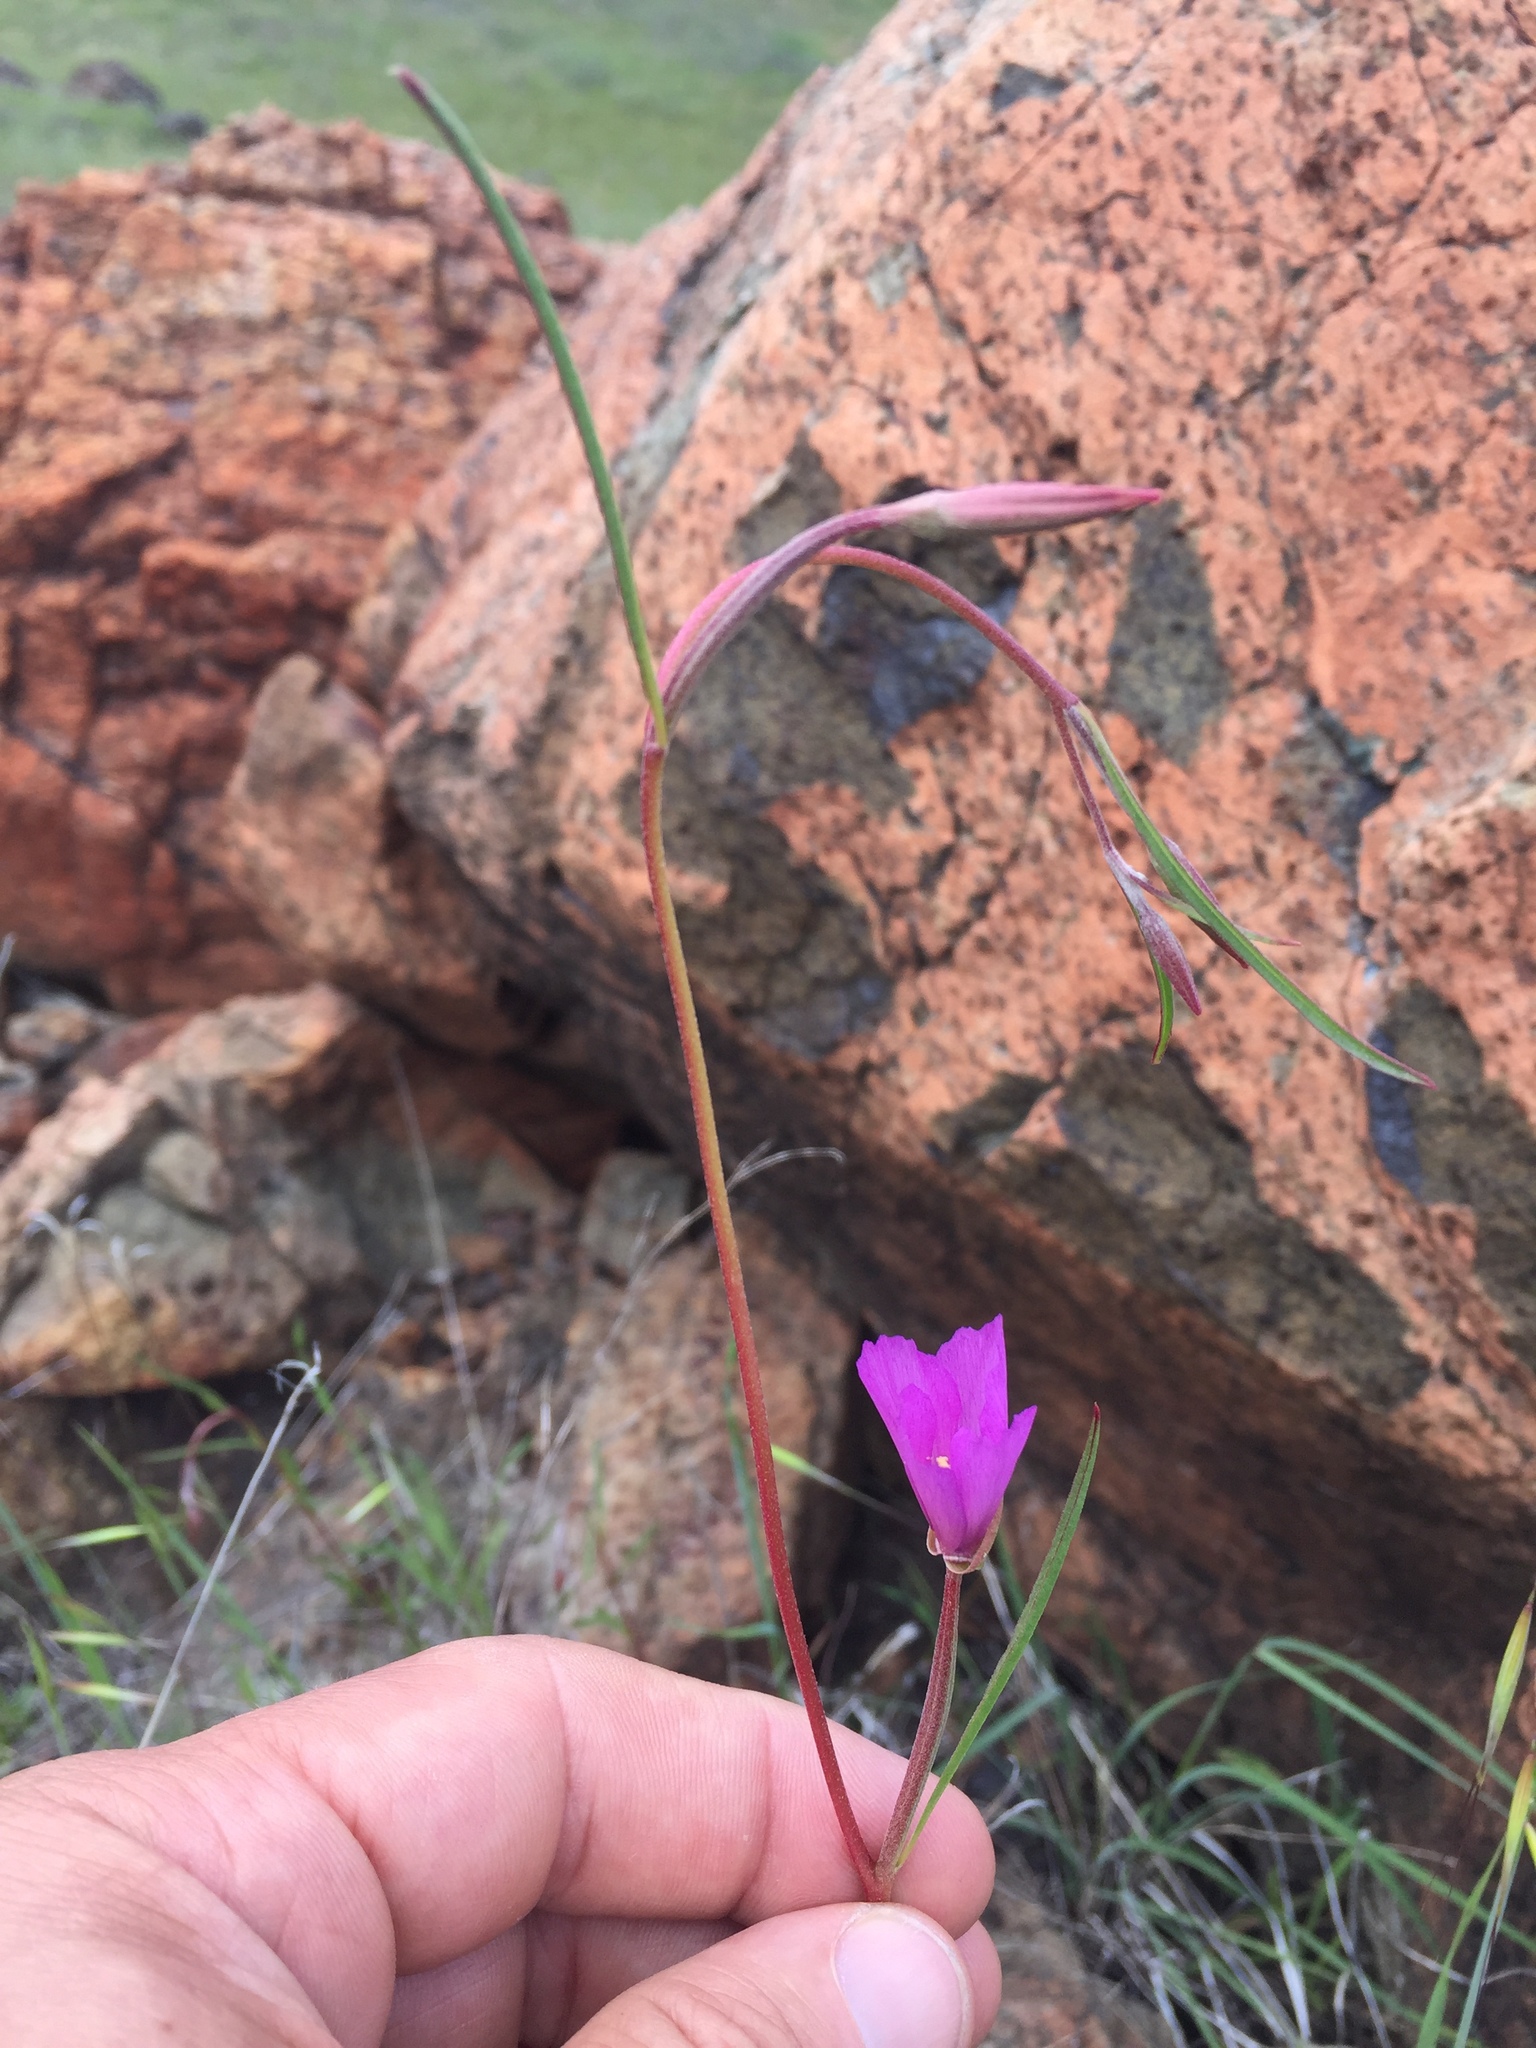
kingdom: Plantae
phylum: Tracheophyta
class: Magnoliopsida
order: Myrtales
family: Onagraceae
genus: Clarkia
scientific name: Clarkia gracilis
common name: Graceful clarkia
